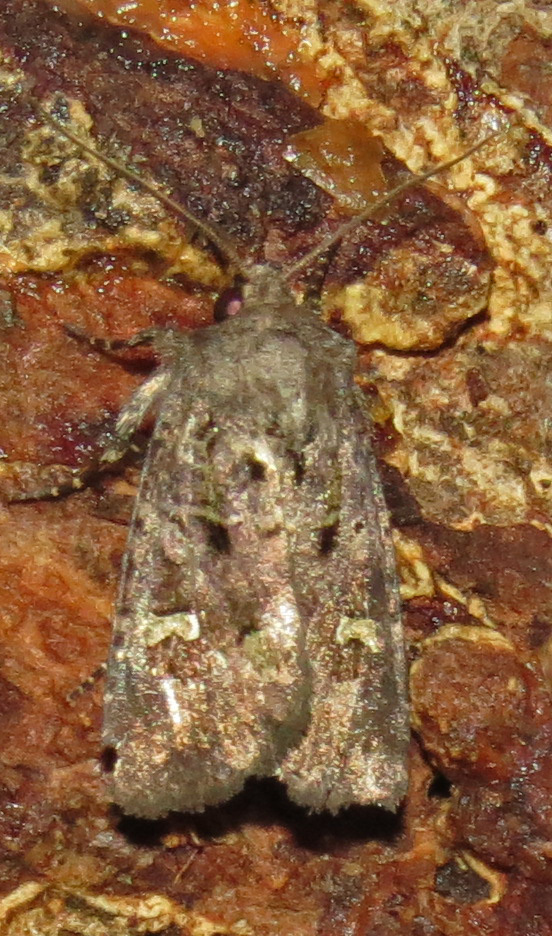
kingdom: Animalia
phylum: Arthropoda
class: Insecta
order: Lepidoptera
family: Noctuidae
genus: Lacinipolia
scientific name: Lacinipolia renigera
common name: Kidney-spotted minor
